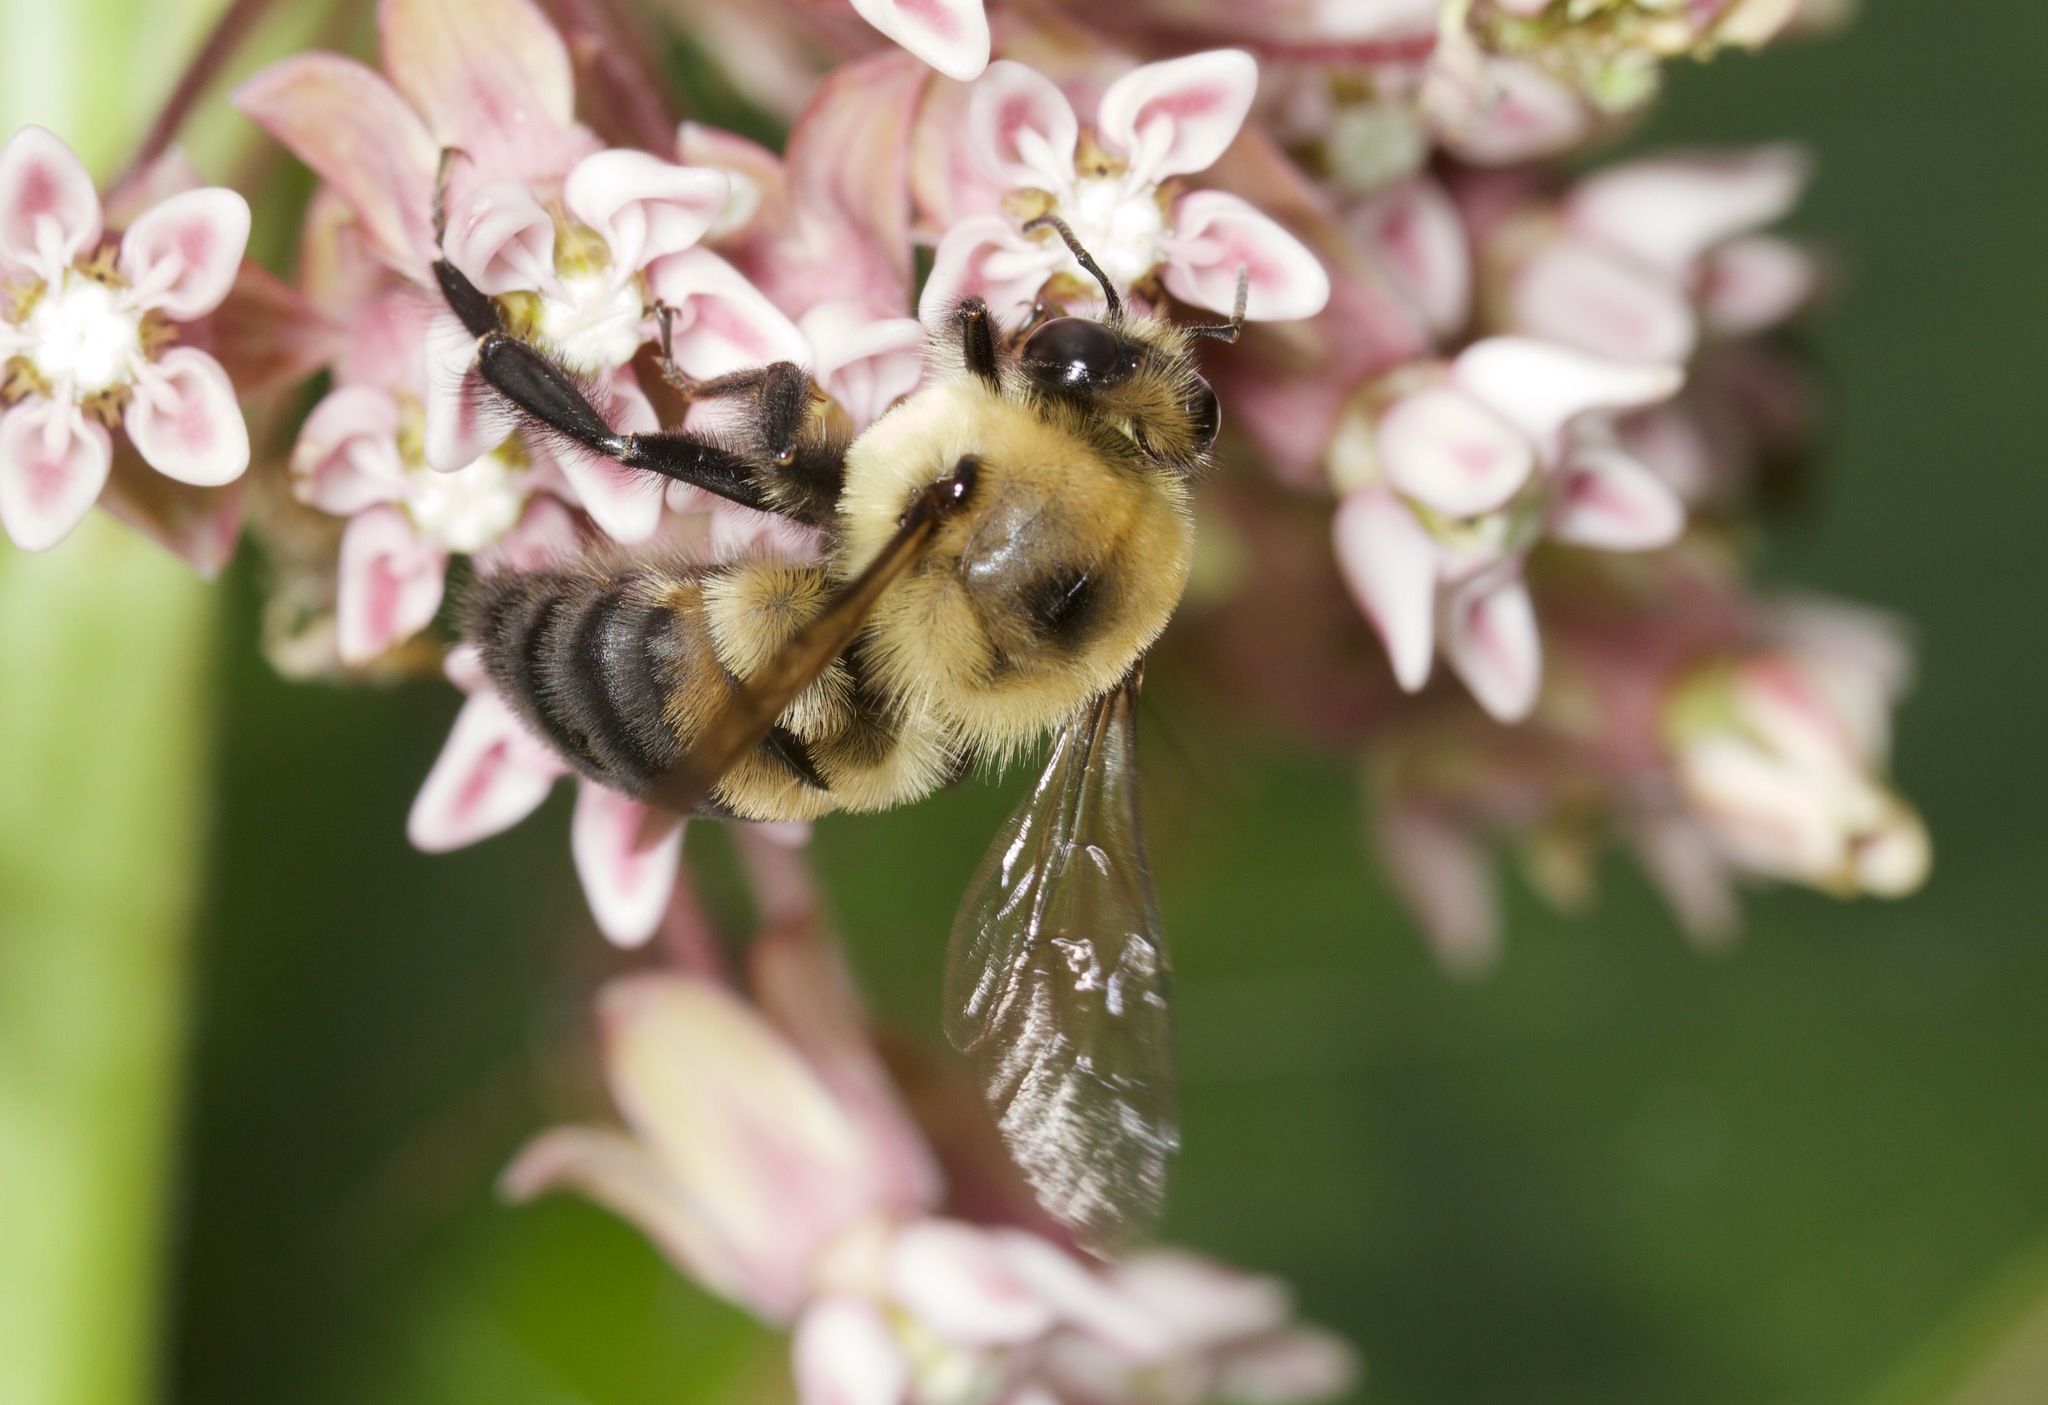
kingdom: Animalia
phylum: Arthropoda
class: Insecta
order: Hymenoptera
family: Apidae
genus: Bombus
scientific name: Bombus griseocollis
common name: Brown-belted bumble bee
